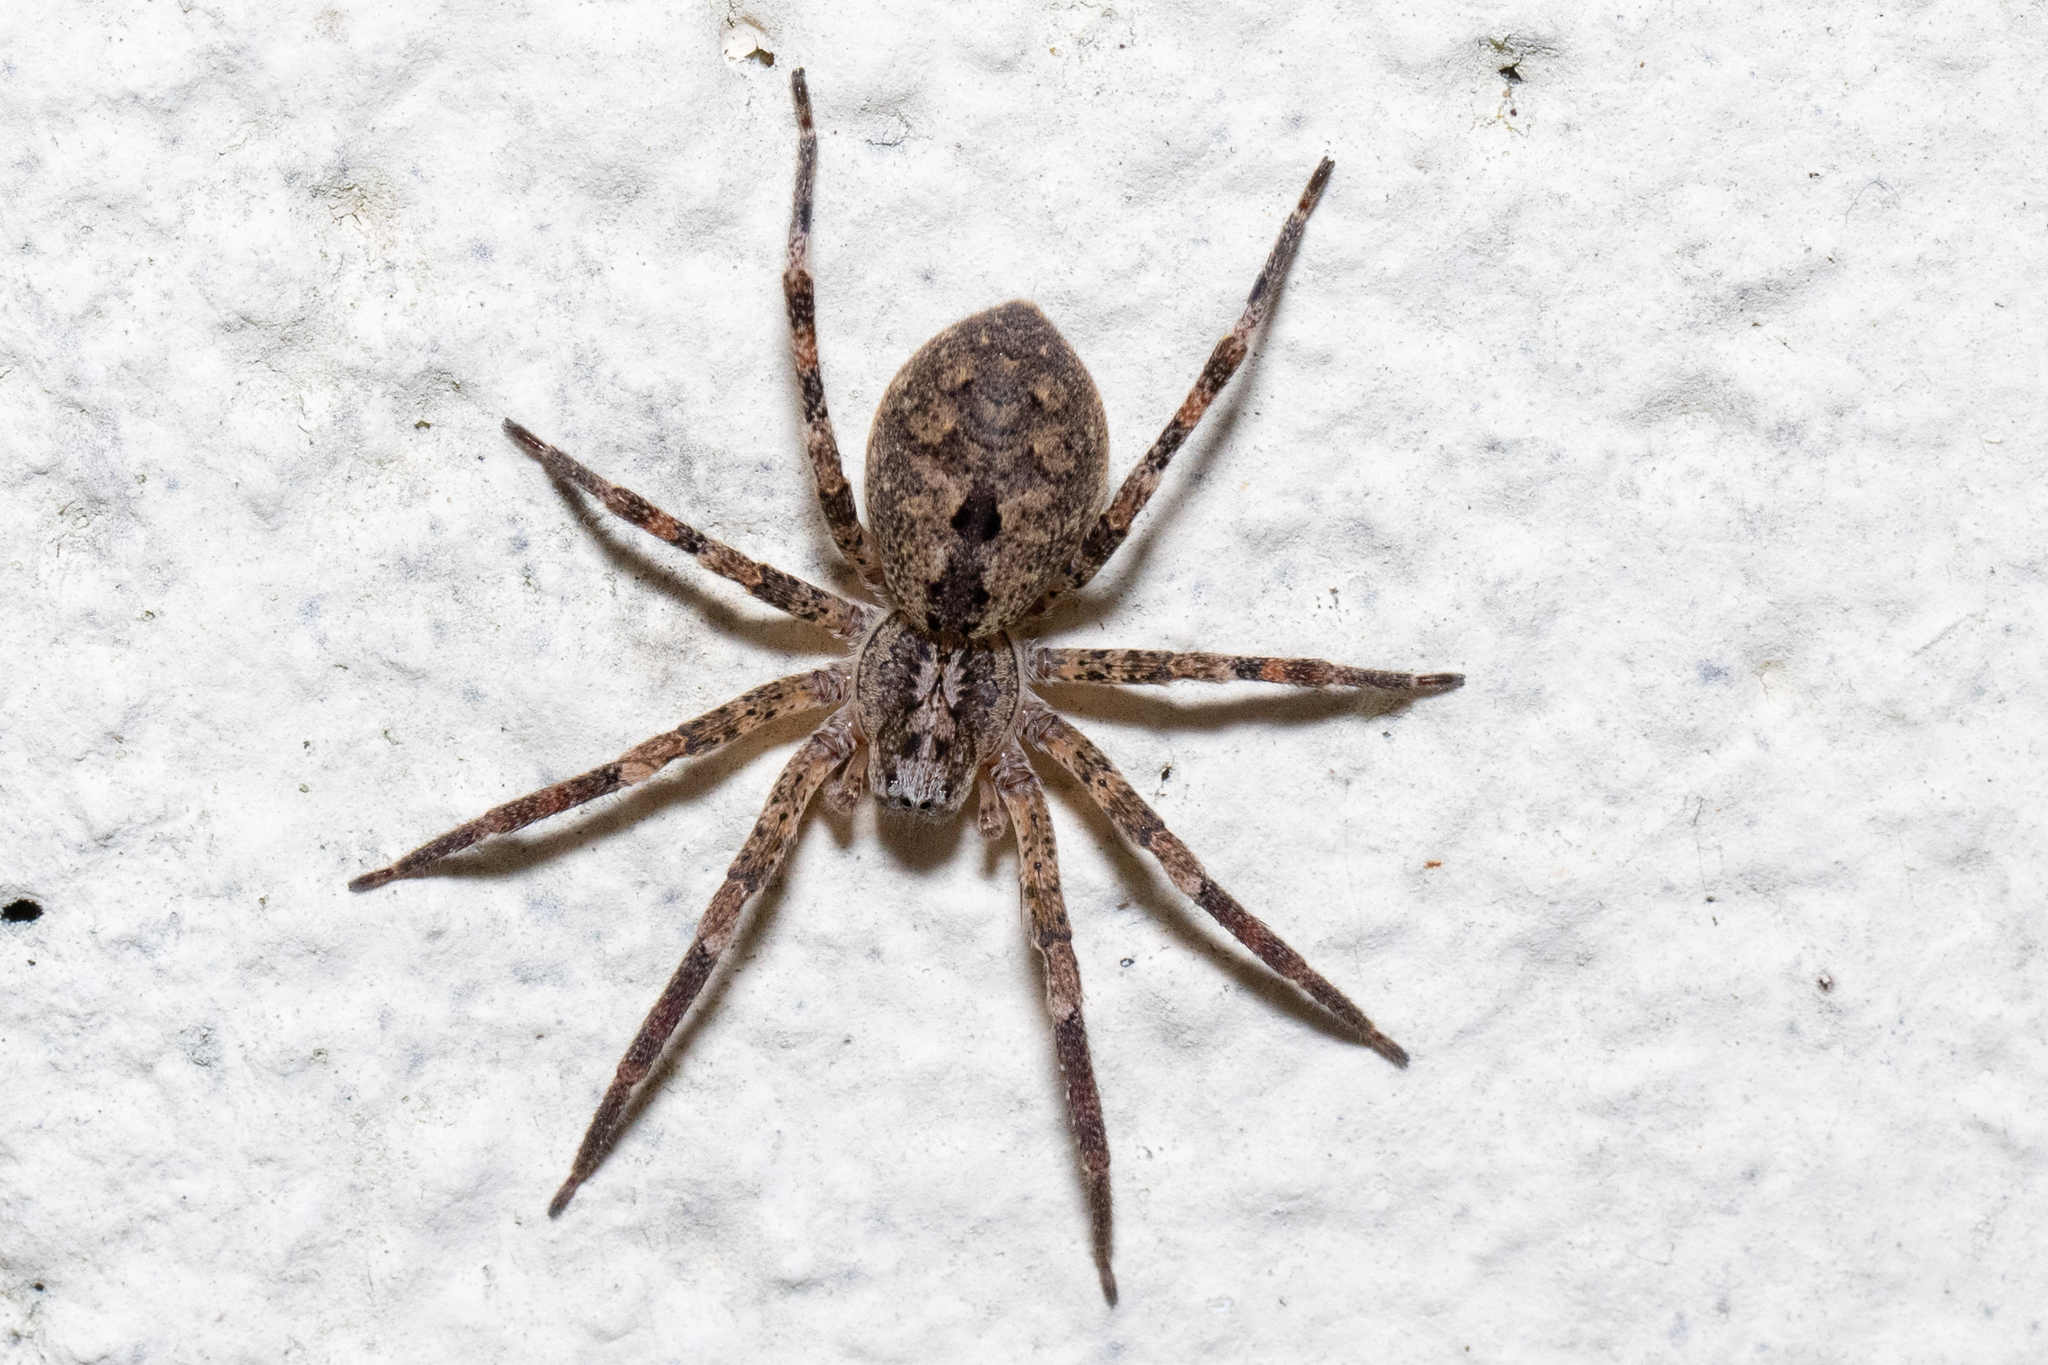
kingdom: Animalia
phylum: Arthropoda
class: Arachnida
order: Araneae
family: Zoropsidae
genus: Zoropsis
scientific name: Zoropsis spinimana
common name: Zoropsid spider
